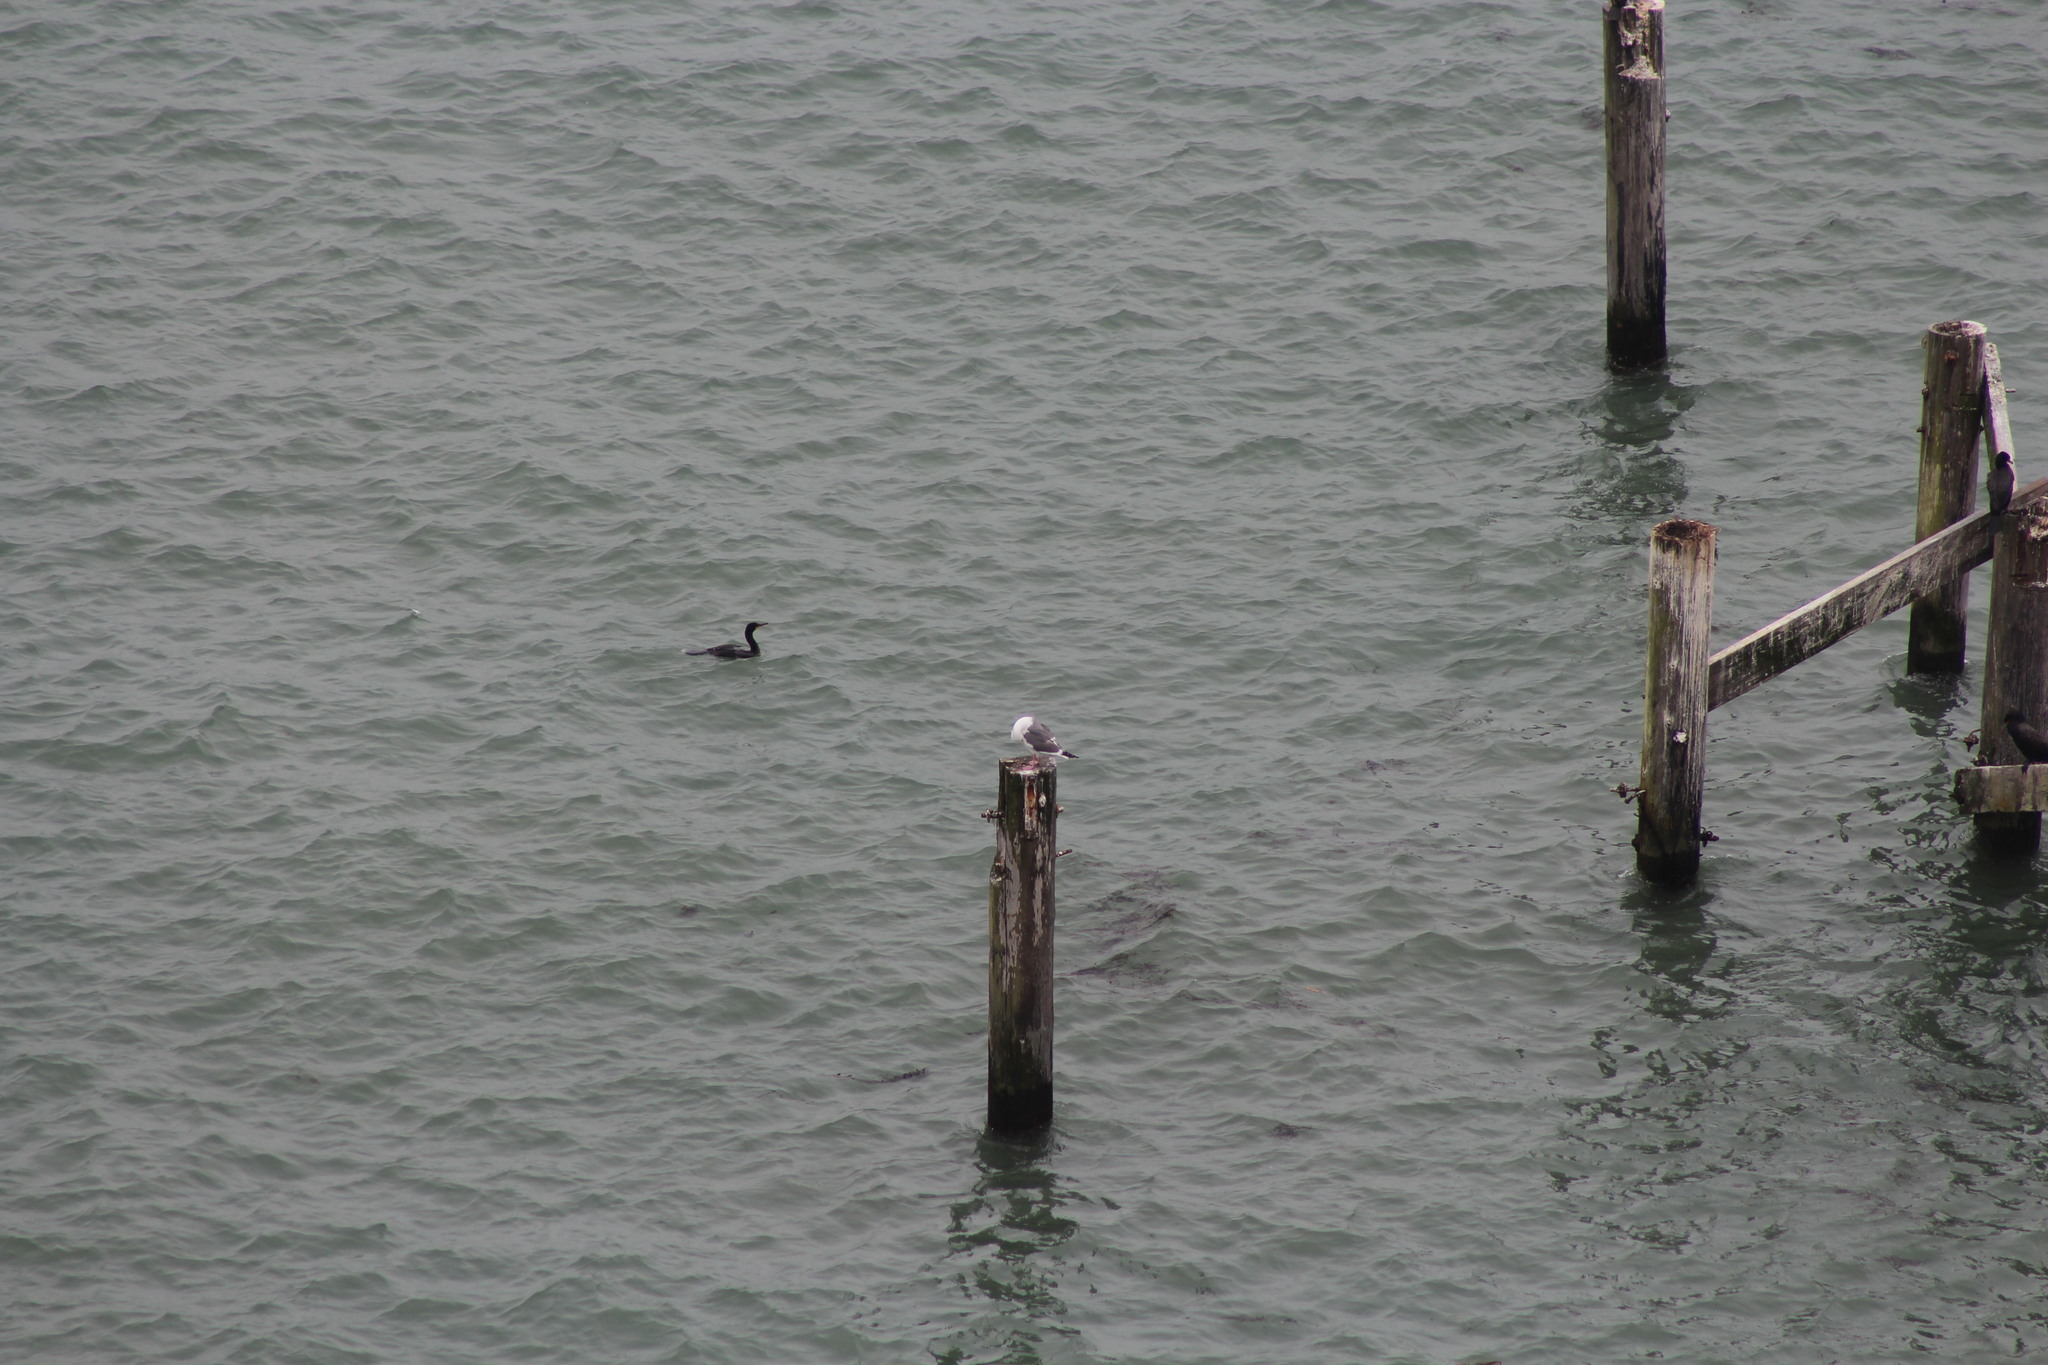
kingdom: Animalia
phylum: Chordata
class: Aves
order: Suliformes
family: Phalacrocoracidae
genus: Phalacrocorax
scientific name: Phalacrocorax auritus
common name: Double-crested cormorant
